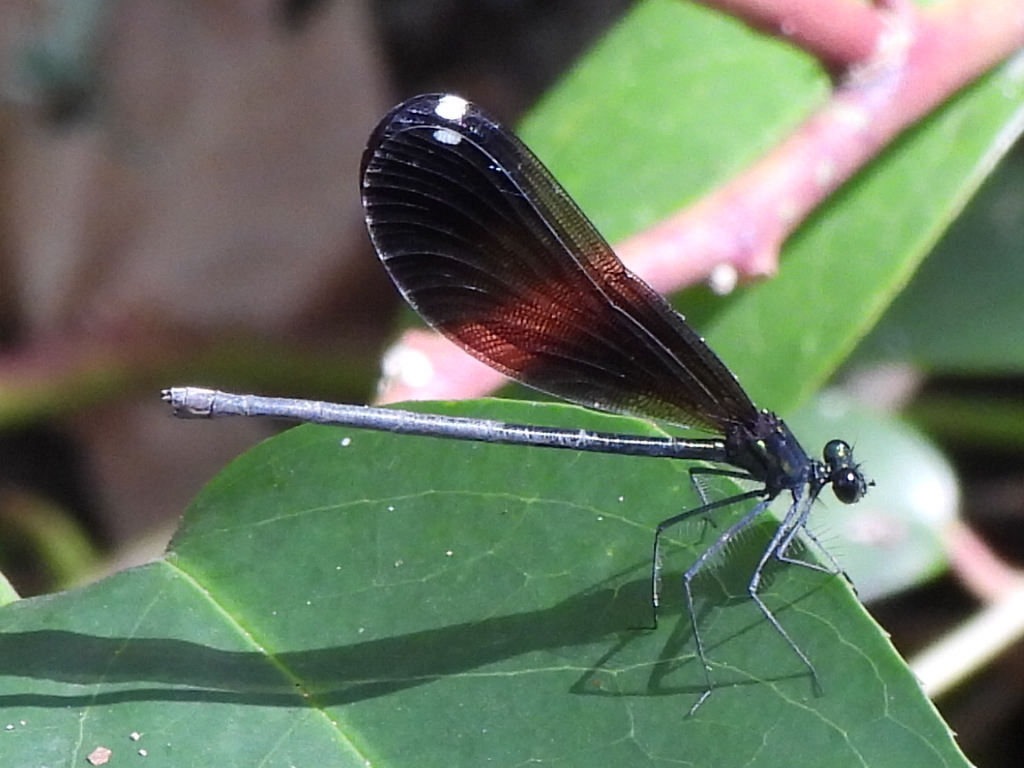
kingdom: Animalia
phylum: Arthropoda
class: Insecta
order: Odonata
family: Calopterygidae
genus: Calopteryx
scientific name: Calopteryx maculata
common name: Ebony jewelwing
